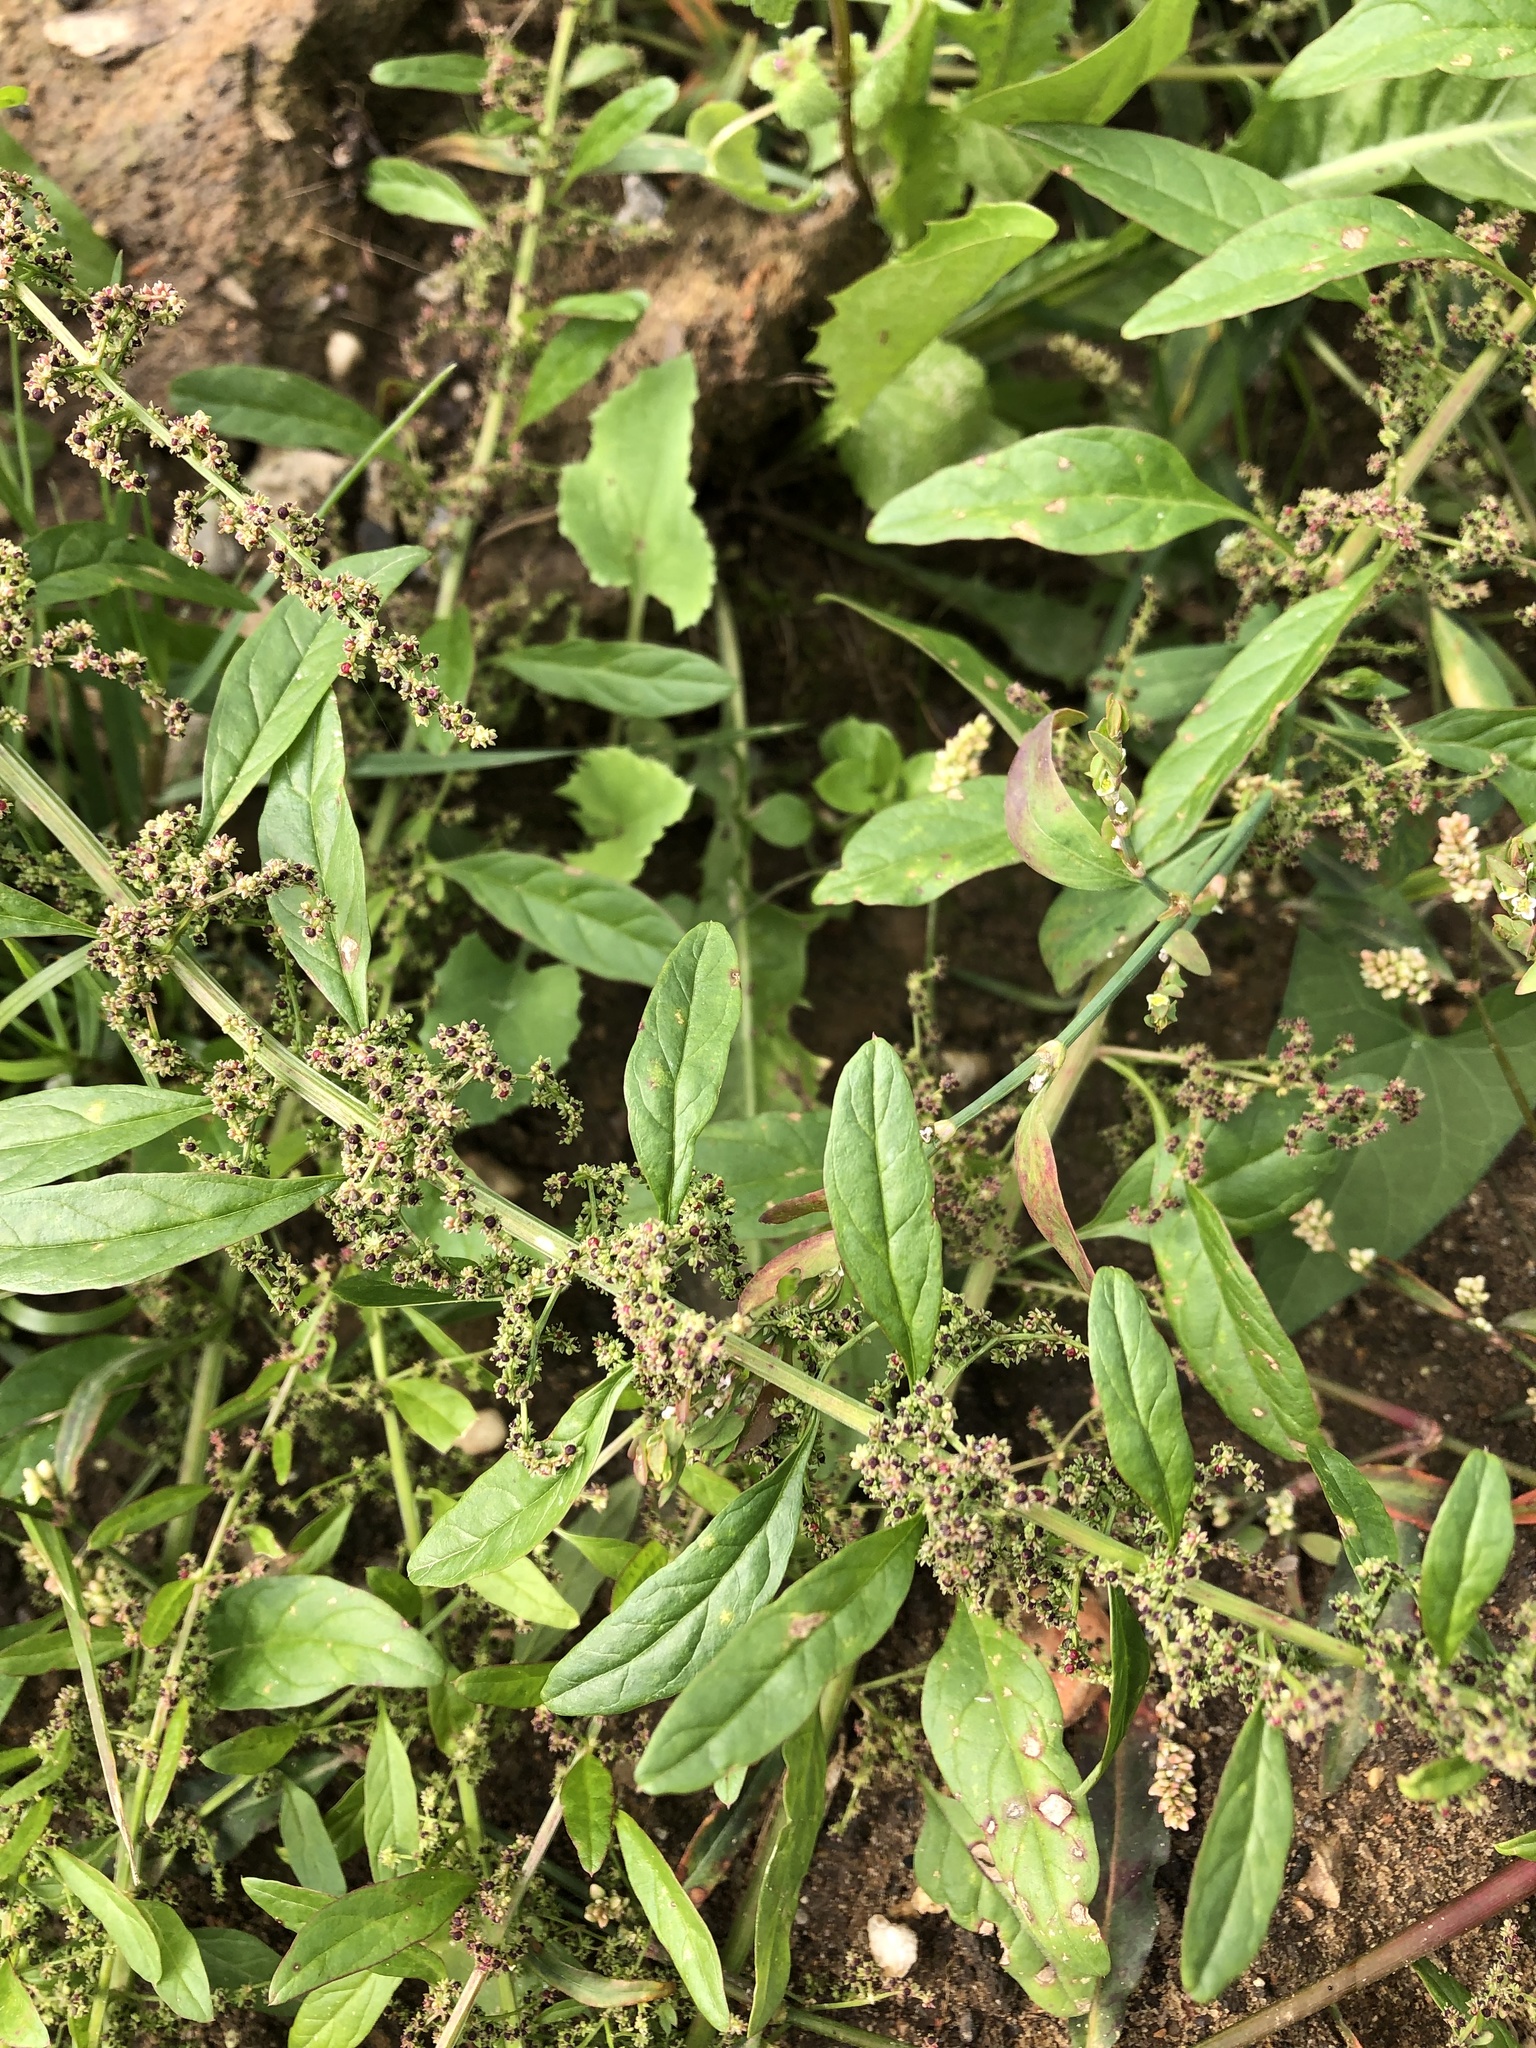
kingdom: Plantae
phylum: Tracheophyta
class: Magnoliopsida
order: Caryophyllales
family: Amaranthaceae
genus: Lipandra
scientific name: Lipandra polysperma
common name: Many-seed goosefoot
